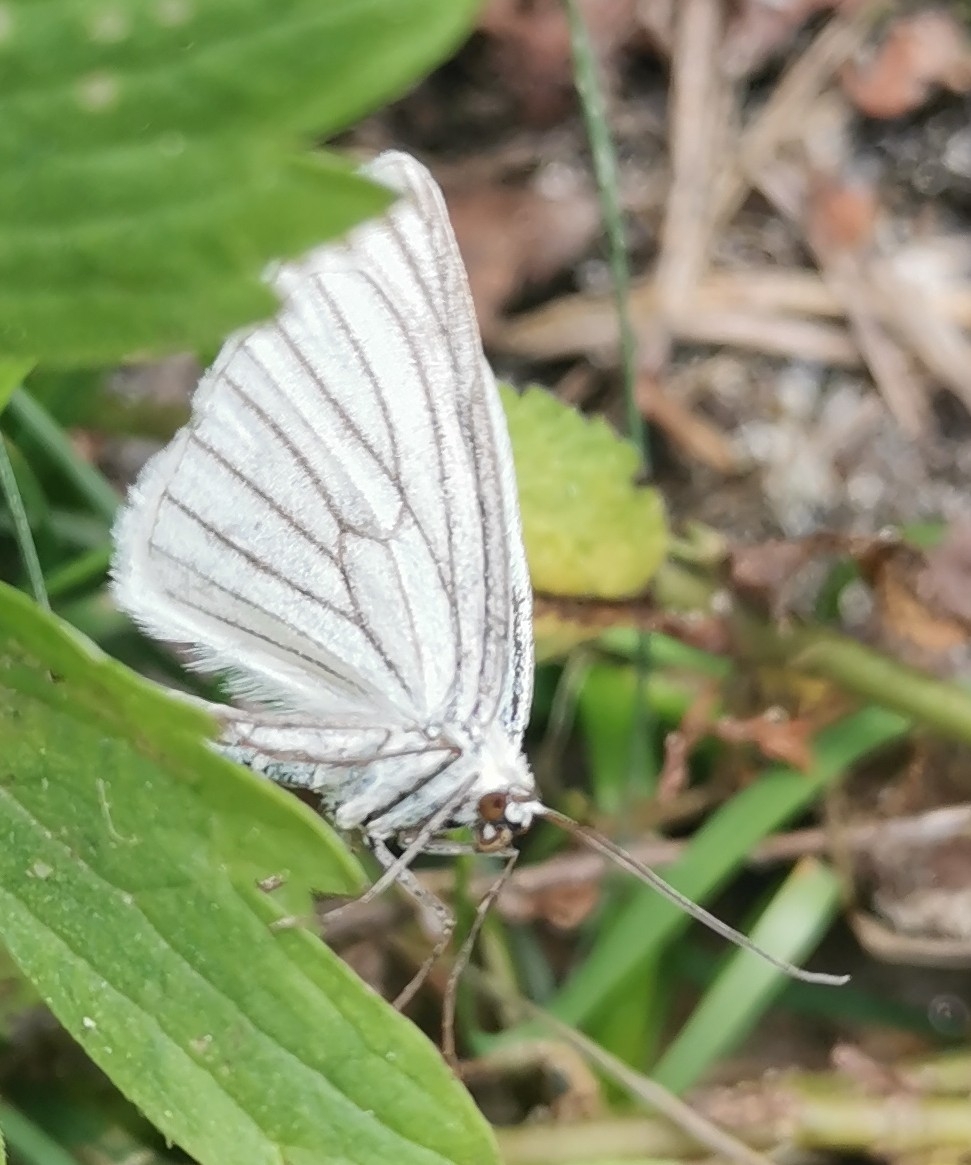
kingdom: Animalia
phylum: Arthropoda
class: Insecta
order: Lepidoptera
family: Geometridae
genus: Siona
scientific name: Siona lineata
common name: Black-veined moth
